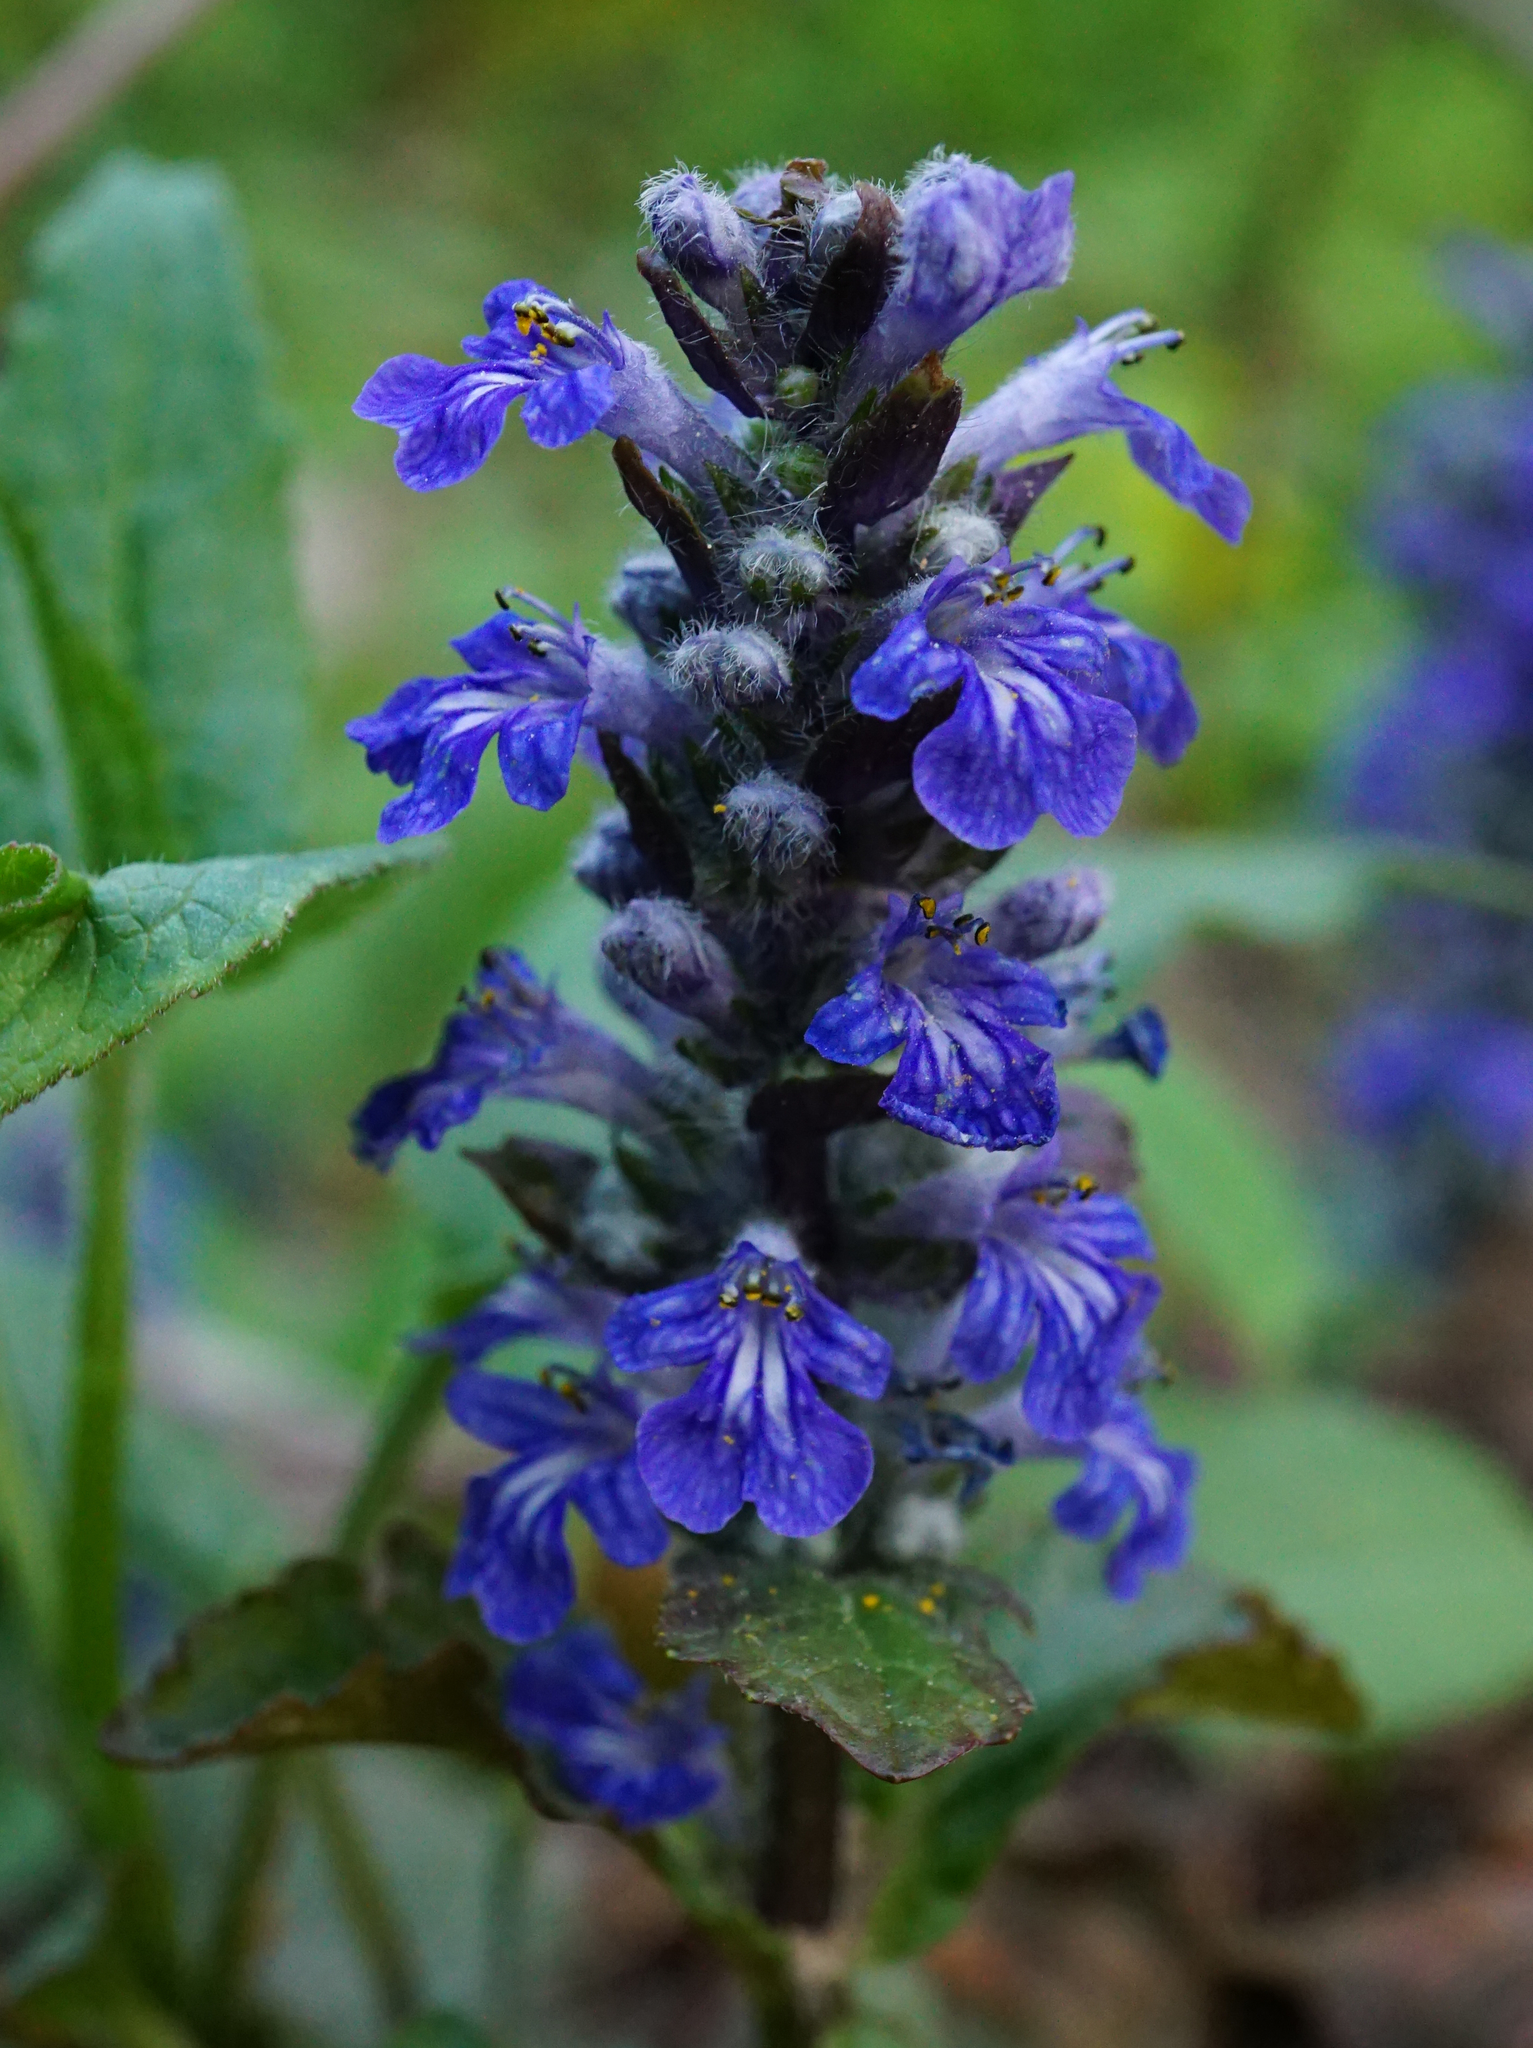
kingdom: Plantae
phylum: Tracheophyta
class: Magnoliopsida
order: Lamiales
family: Lamiaceae
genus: Ajuga
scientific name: Ajuga reptans
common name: Bugle
